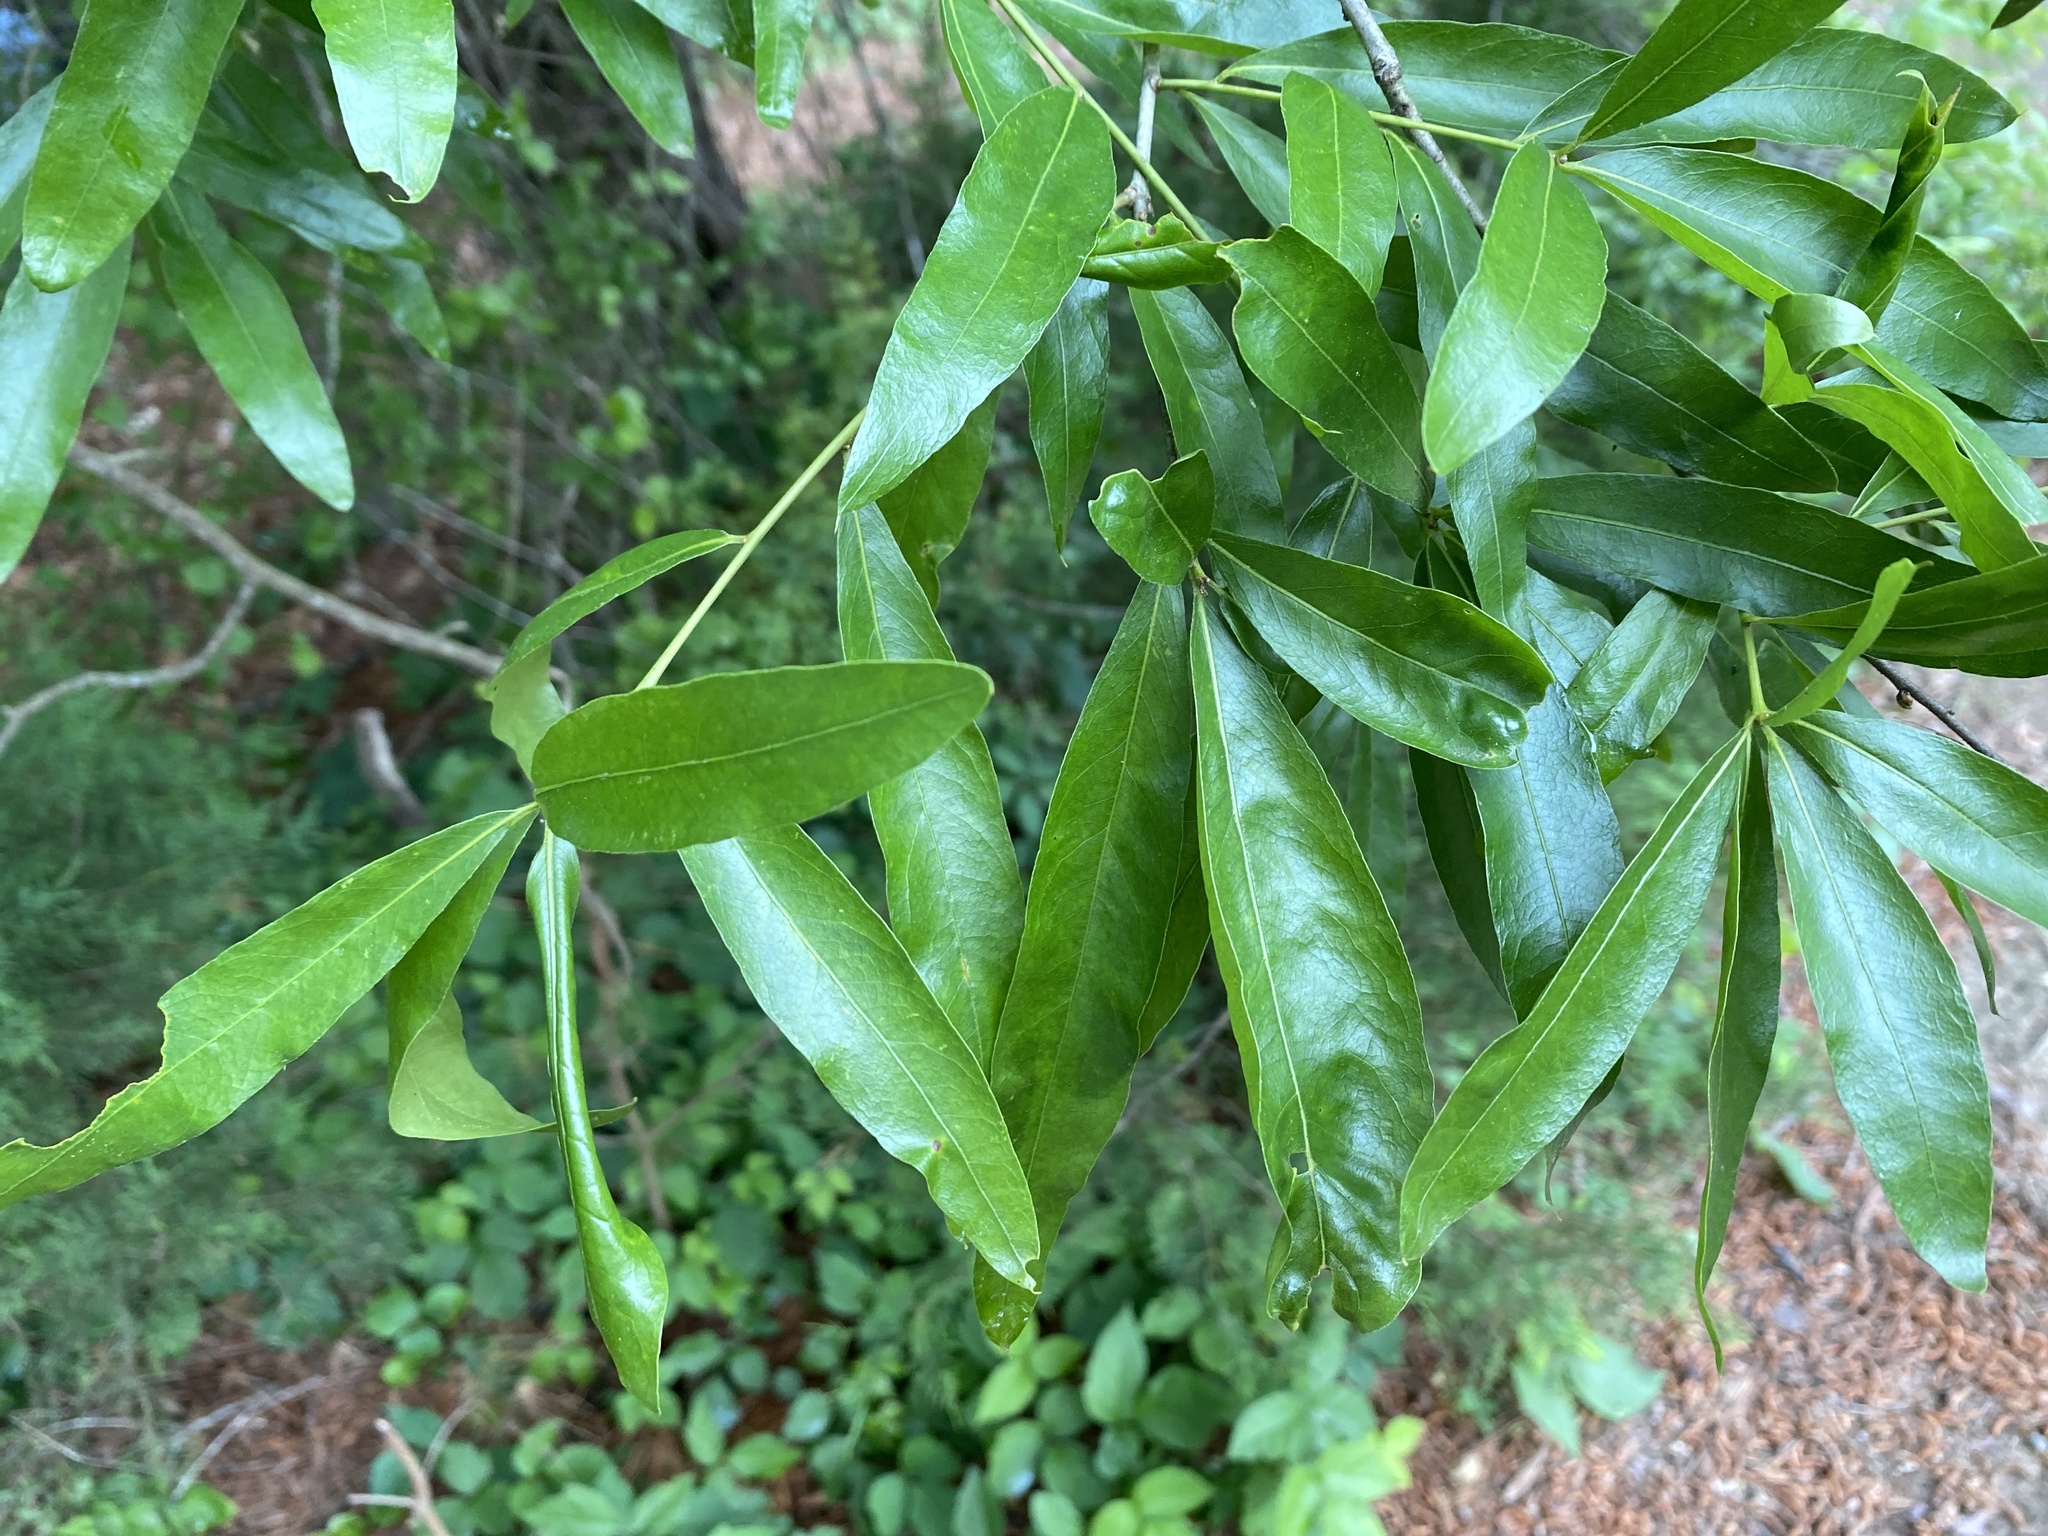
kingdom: Plantae
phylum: Tracheophyta
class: Magnoliopsida
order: Fagales
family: Fagaceae
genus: Quercus
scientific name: Quercus phellos
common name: Willow oak
